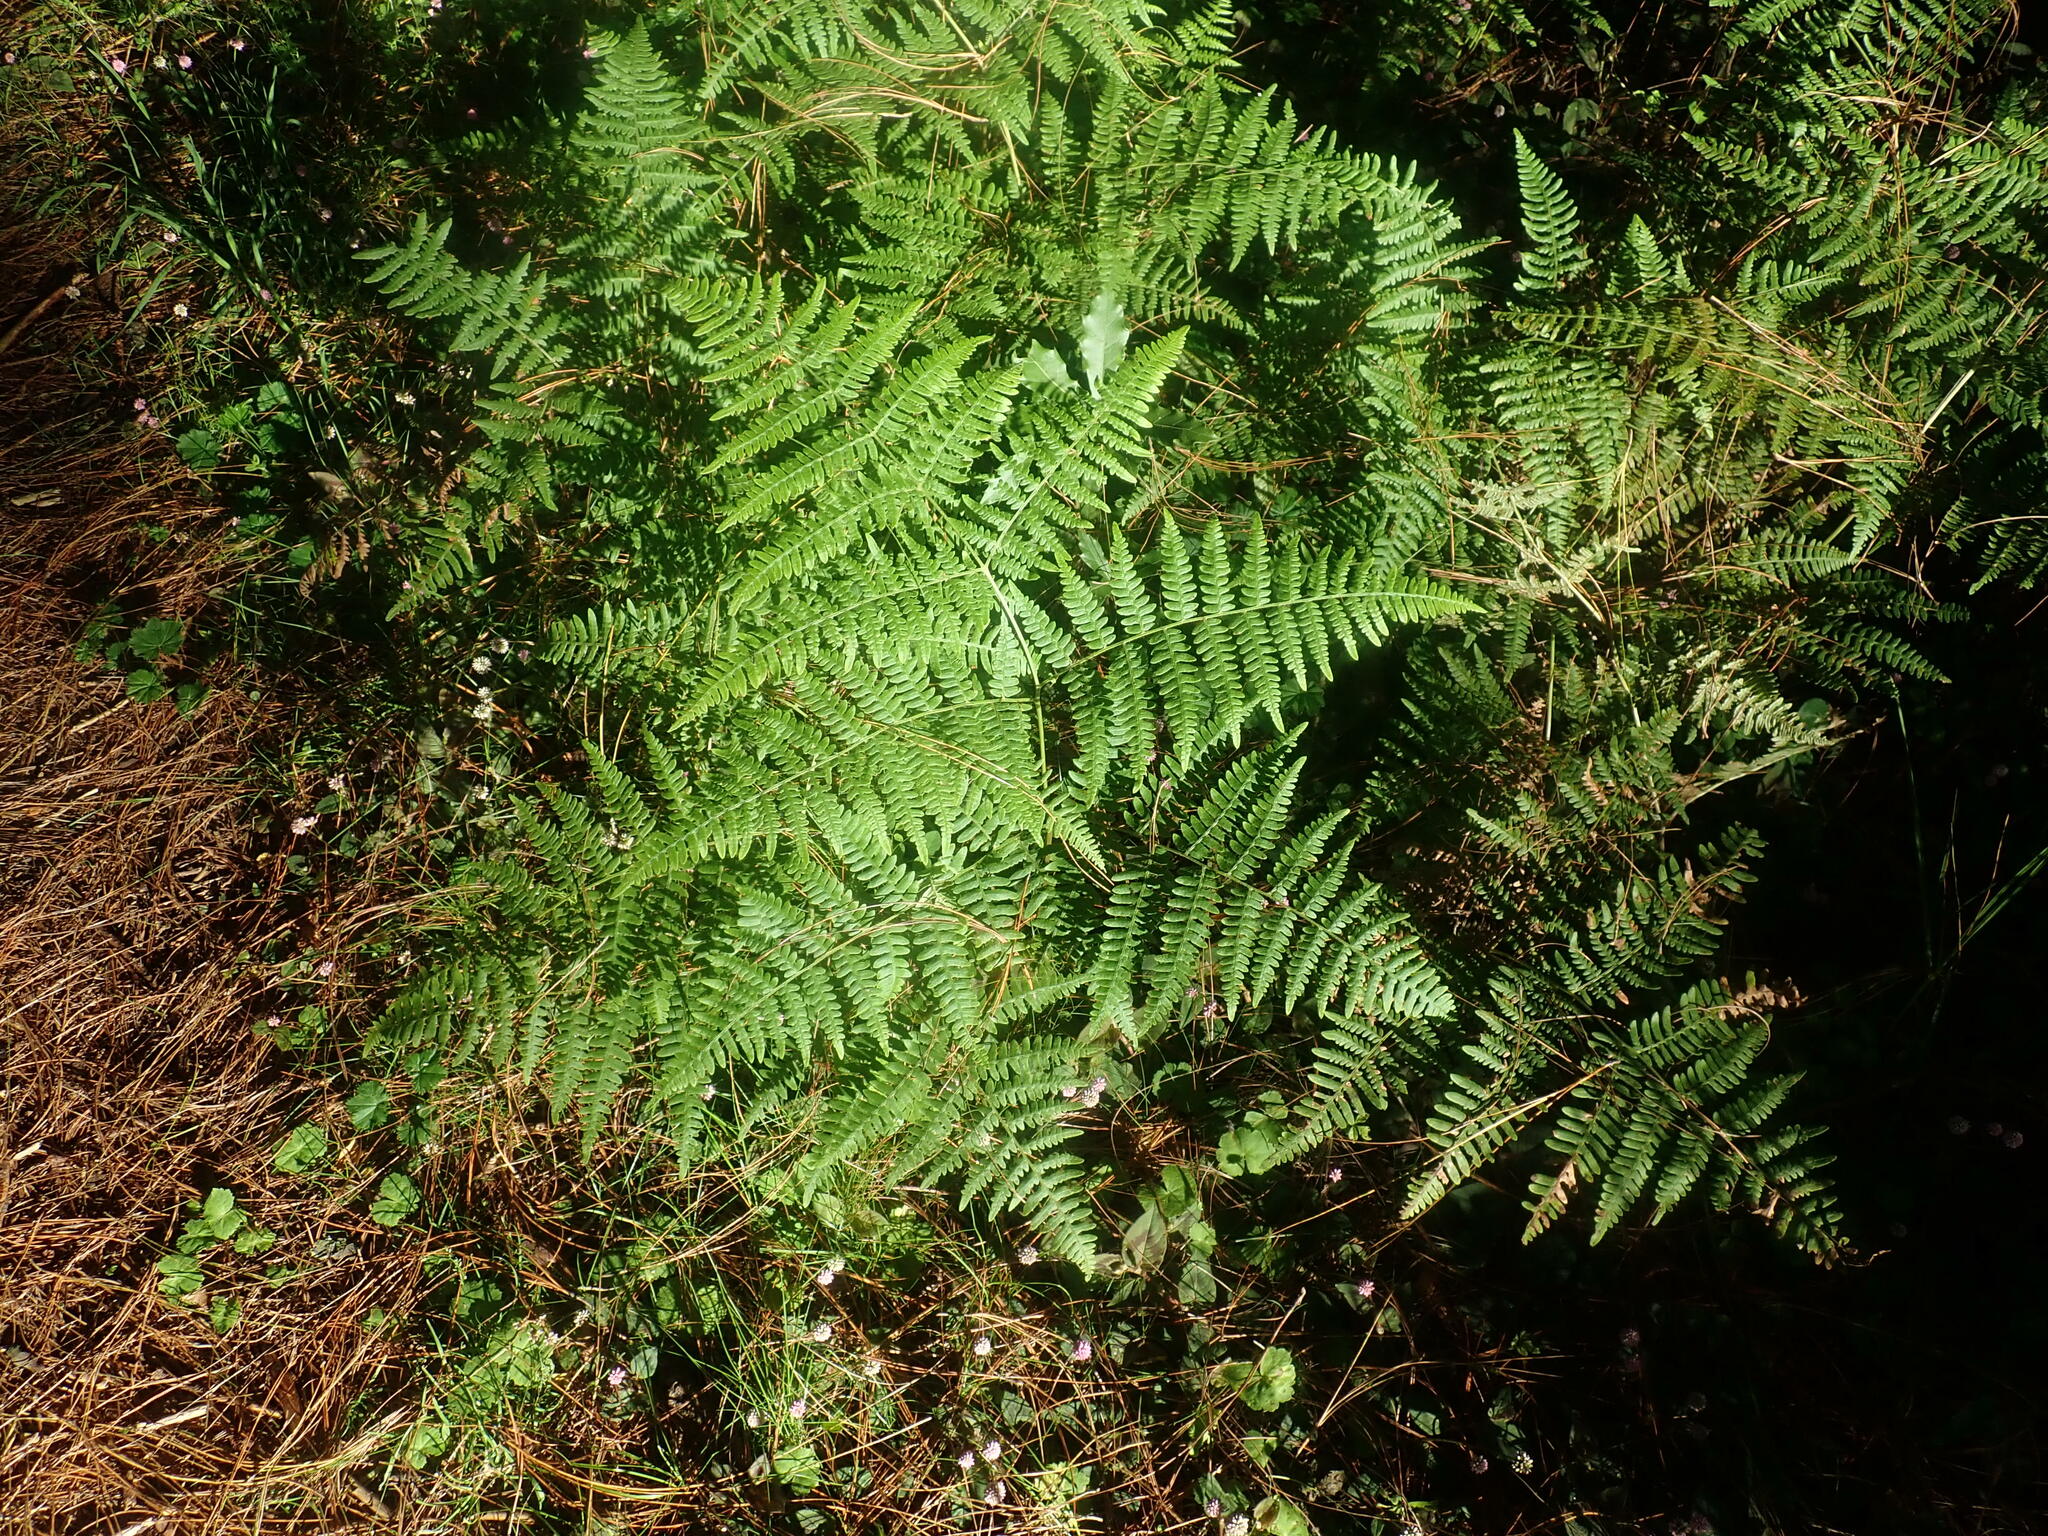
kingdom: Plantae
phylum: Tracheophyta
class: Polypodiopsida
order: Polypodiales
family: Dennstaedtiaceae
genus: Pteridium
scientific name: Pteridium aquilinum
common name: Bracken
